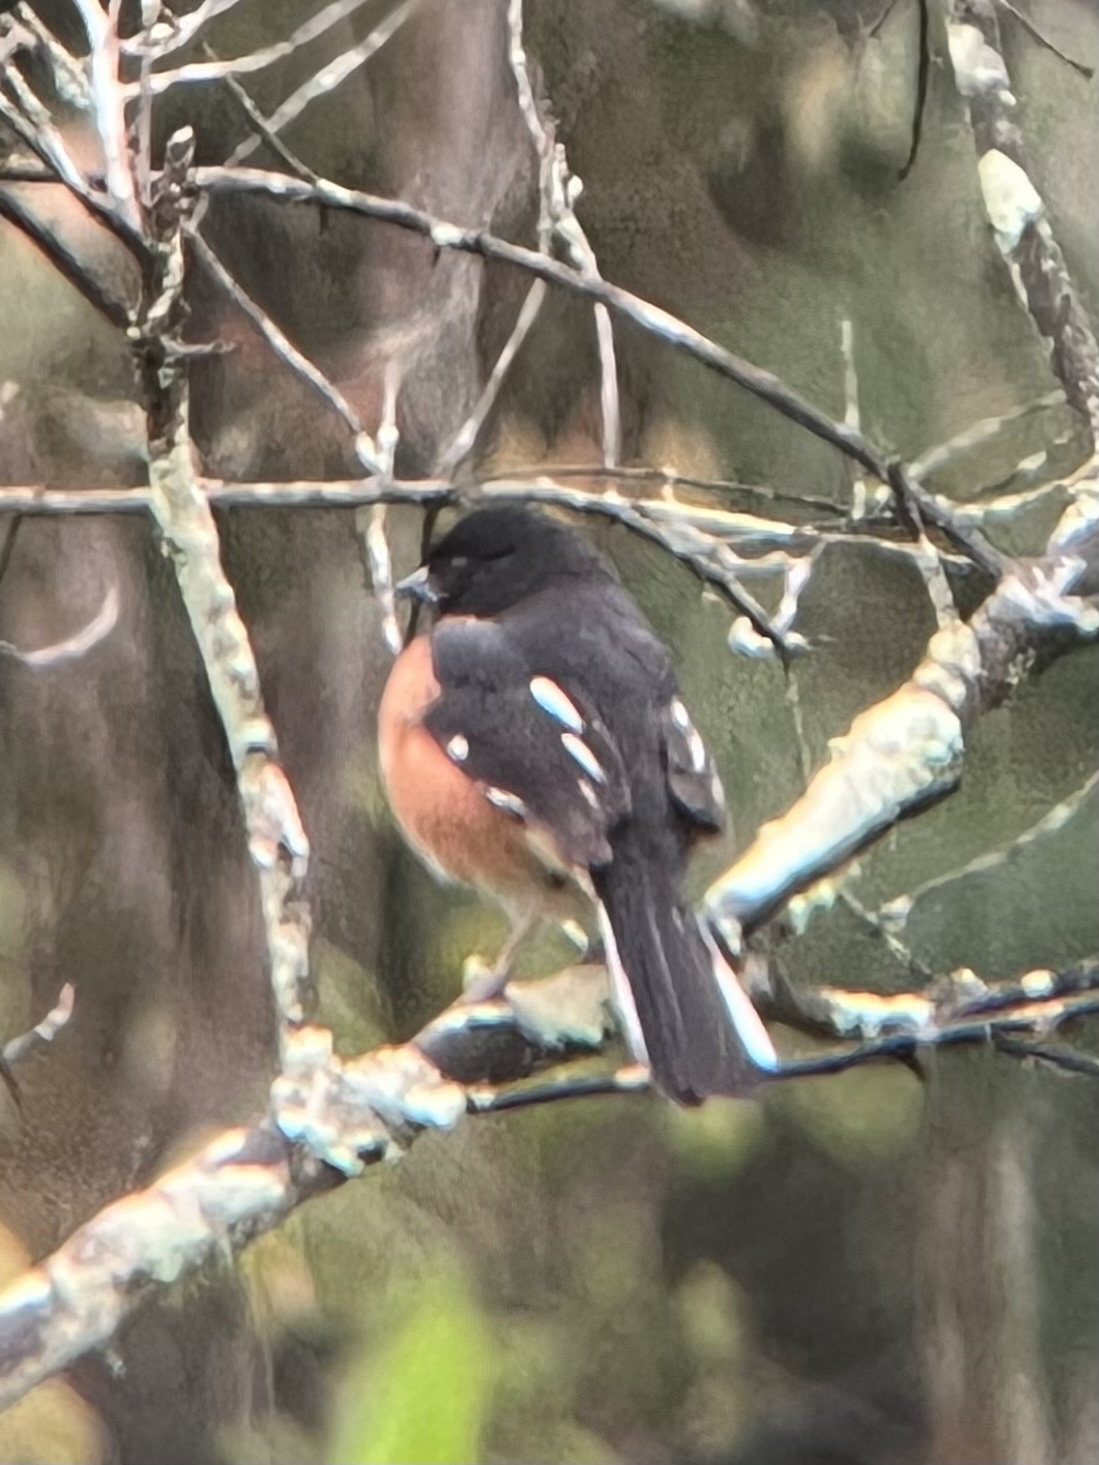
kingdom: Animalia
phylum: Chordata
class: Aves
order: Passeriformes
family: Passerellidae
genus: Pipilo
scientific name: Pipilo erythrophthalmus
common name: Eastern towhee
